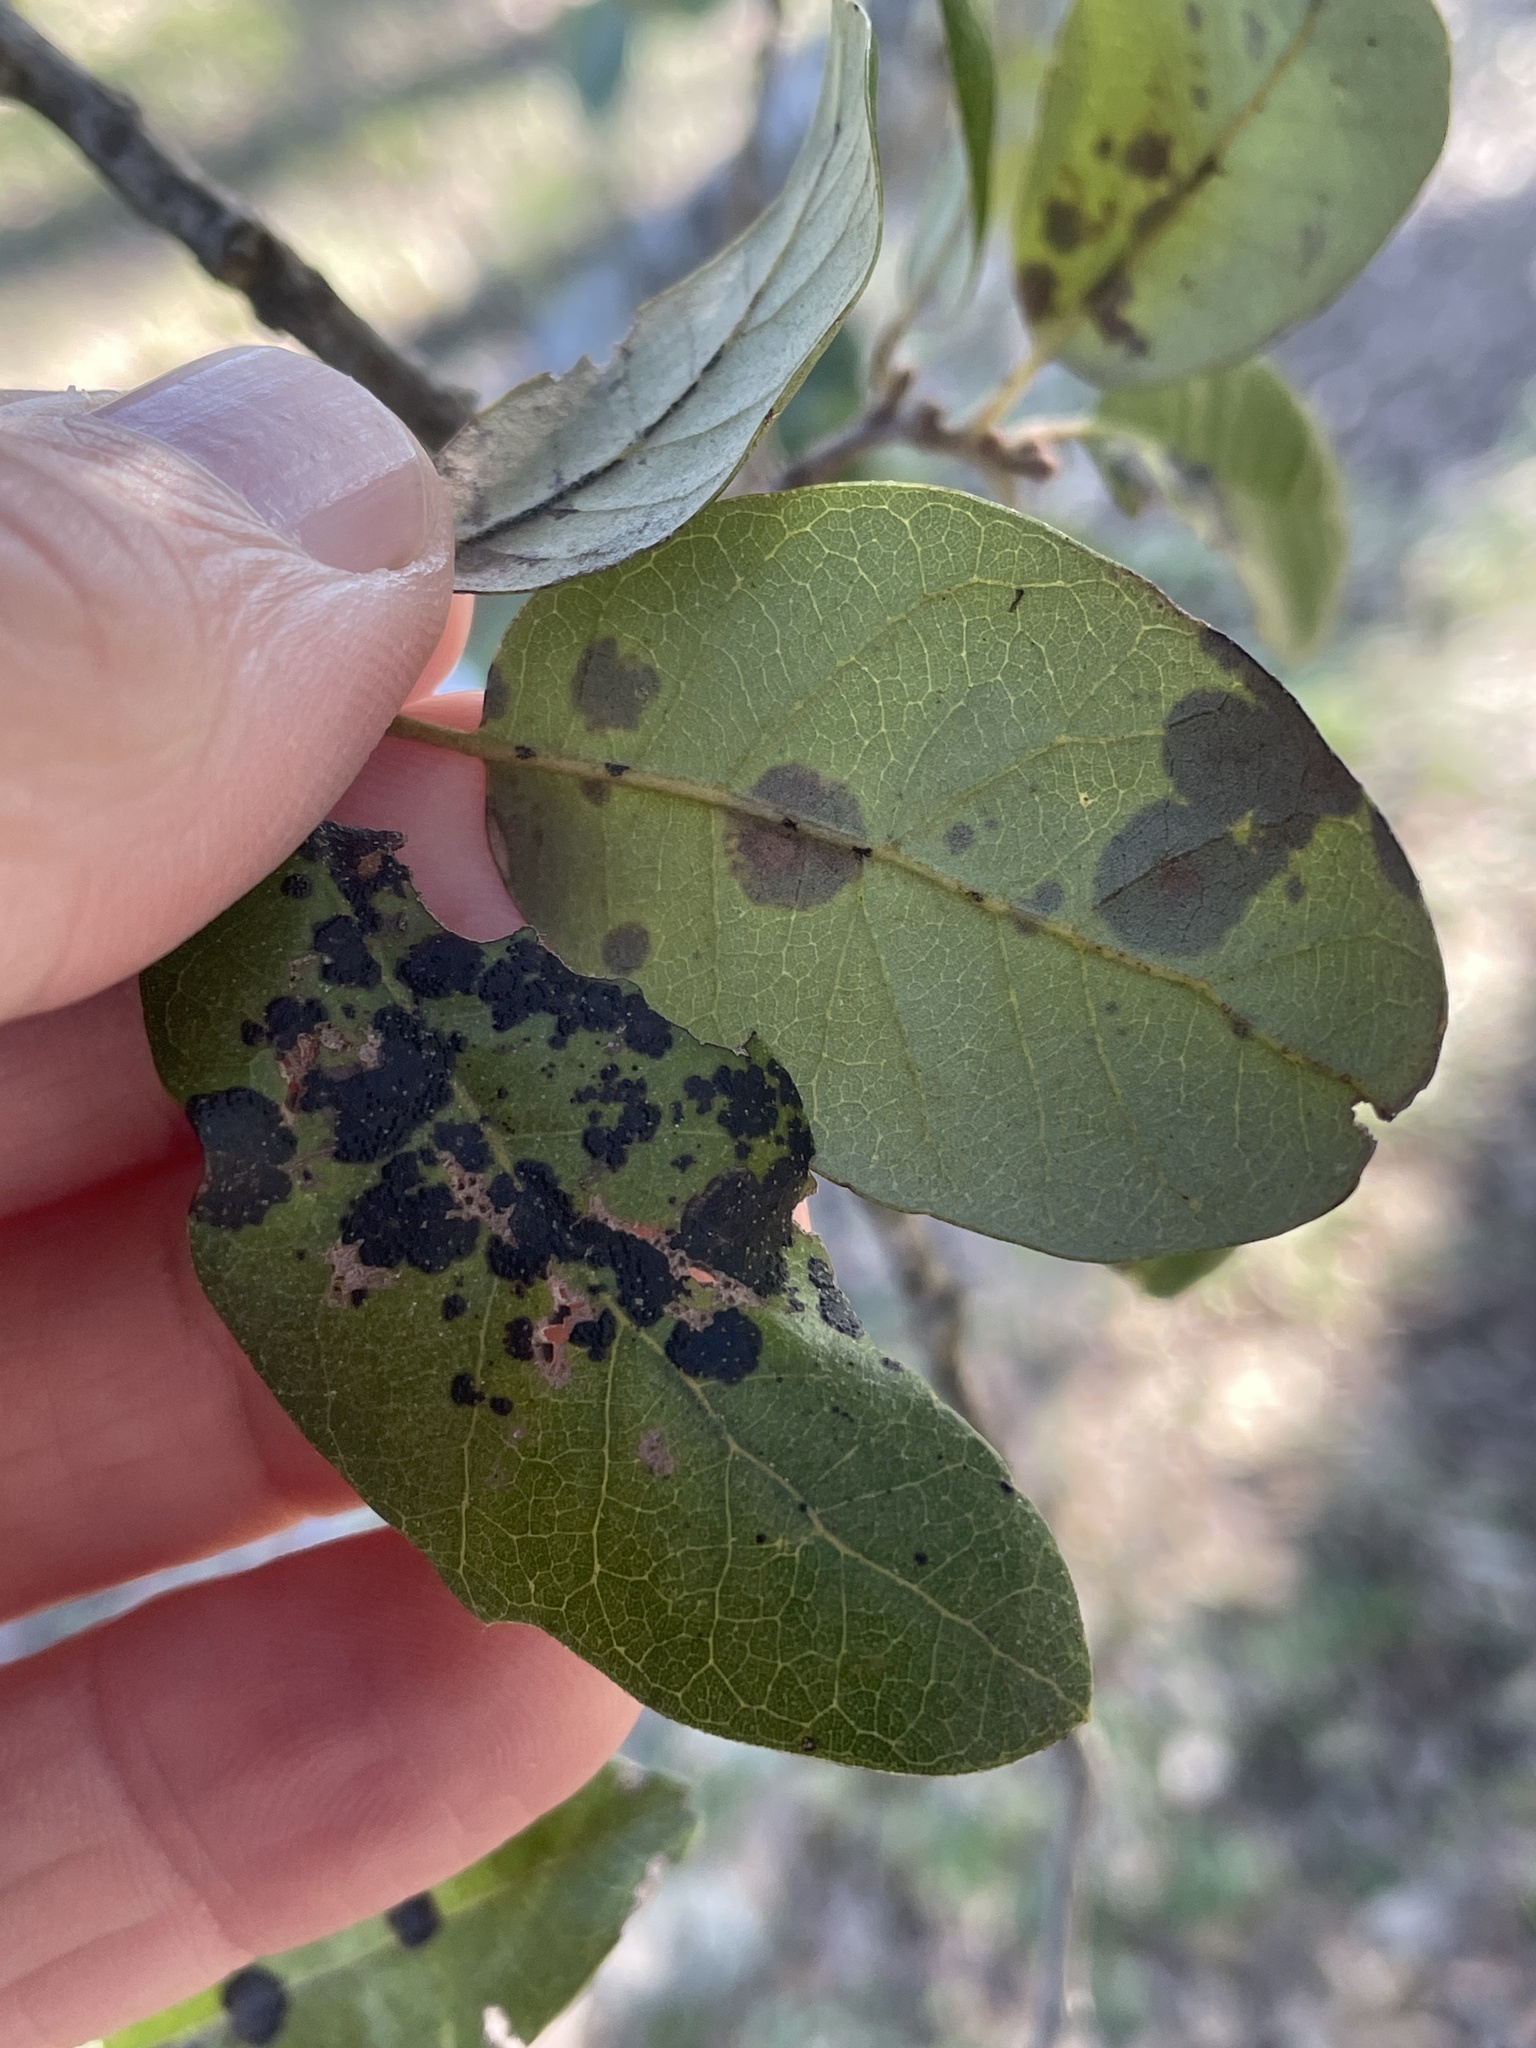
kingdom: Fungi
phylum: Ascomycota
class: Sordariomycetes
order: Phyllachorales
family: Phyllachoraceae
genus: Trabutia
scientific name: Trabutia quercina
